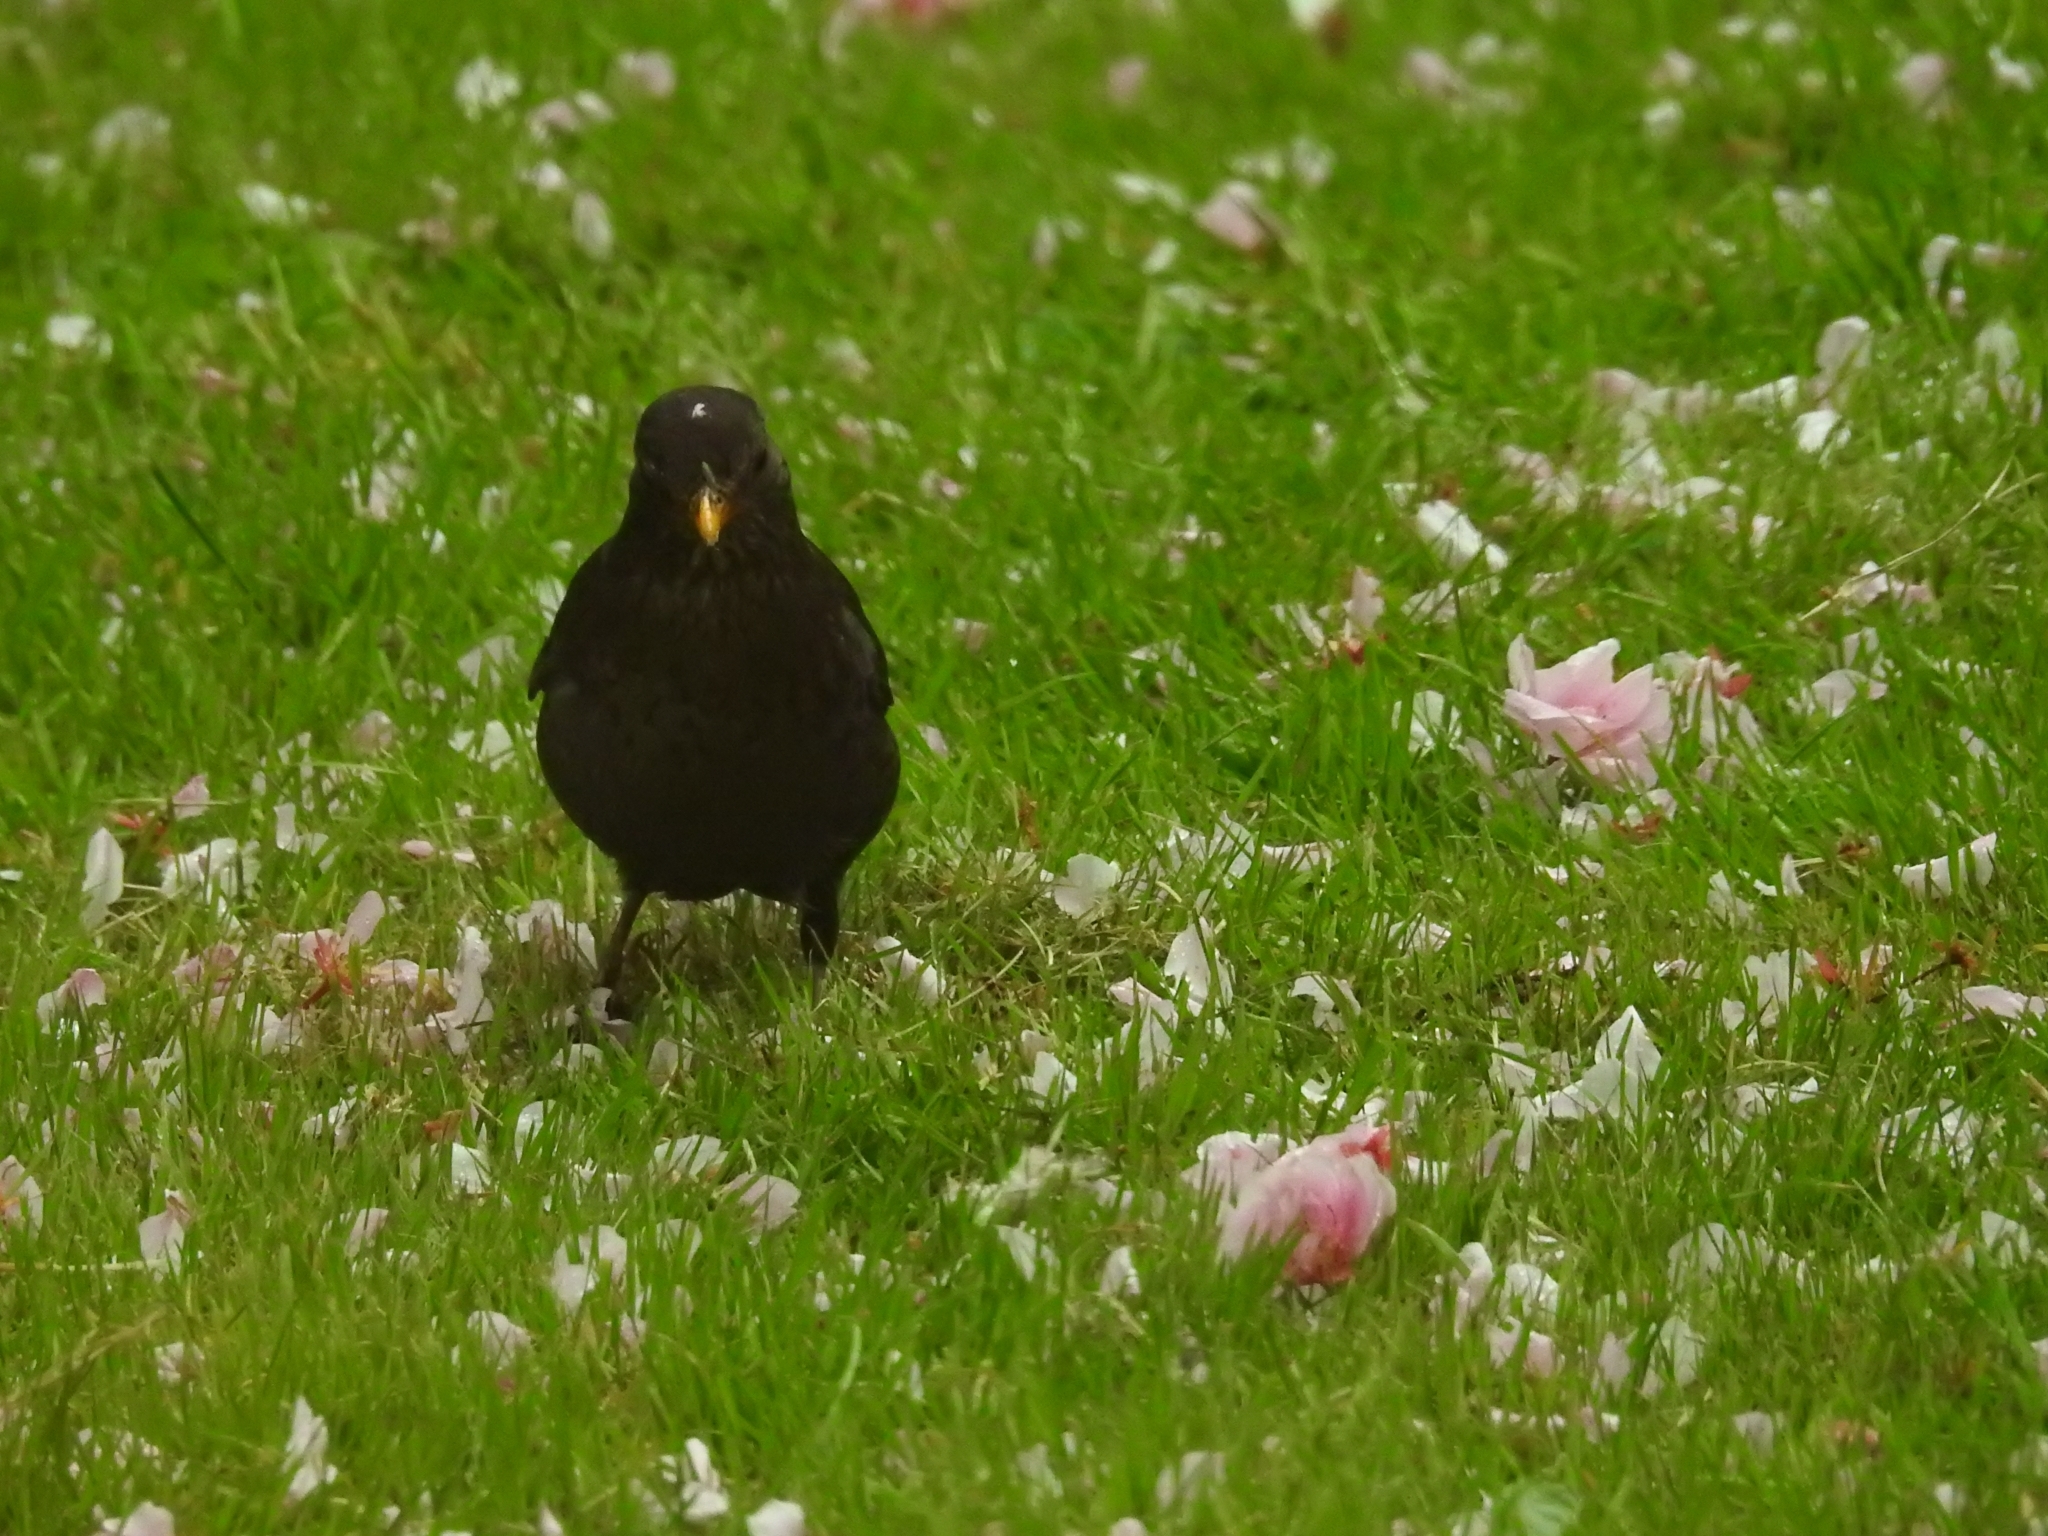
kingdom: Animalia
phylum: Chordata
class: Aves
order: Passeriformes
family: Turdidae
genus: Turdus
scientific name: Turdus merula
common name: Common blackbird
